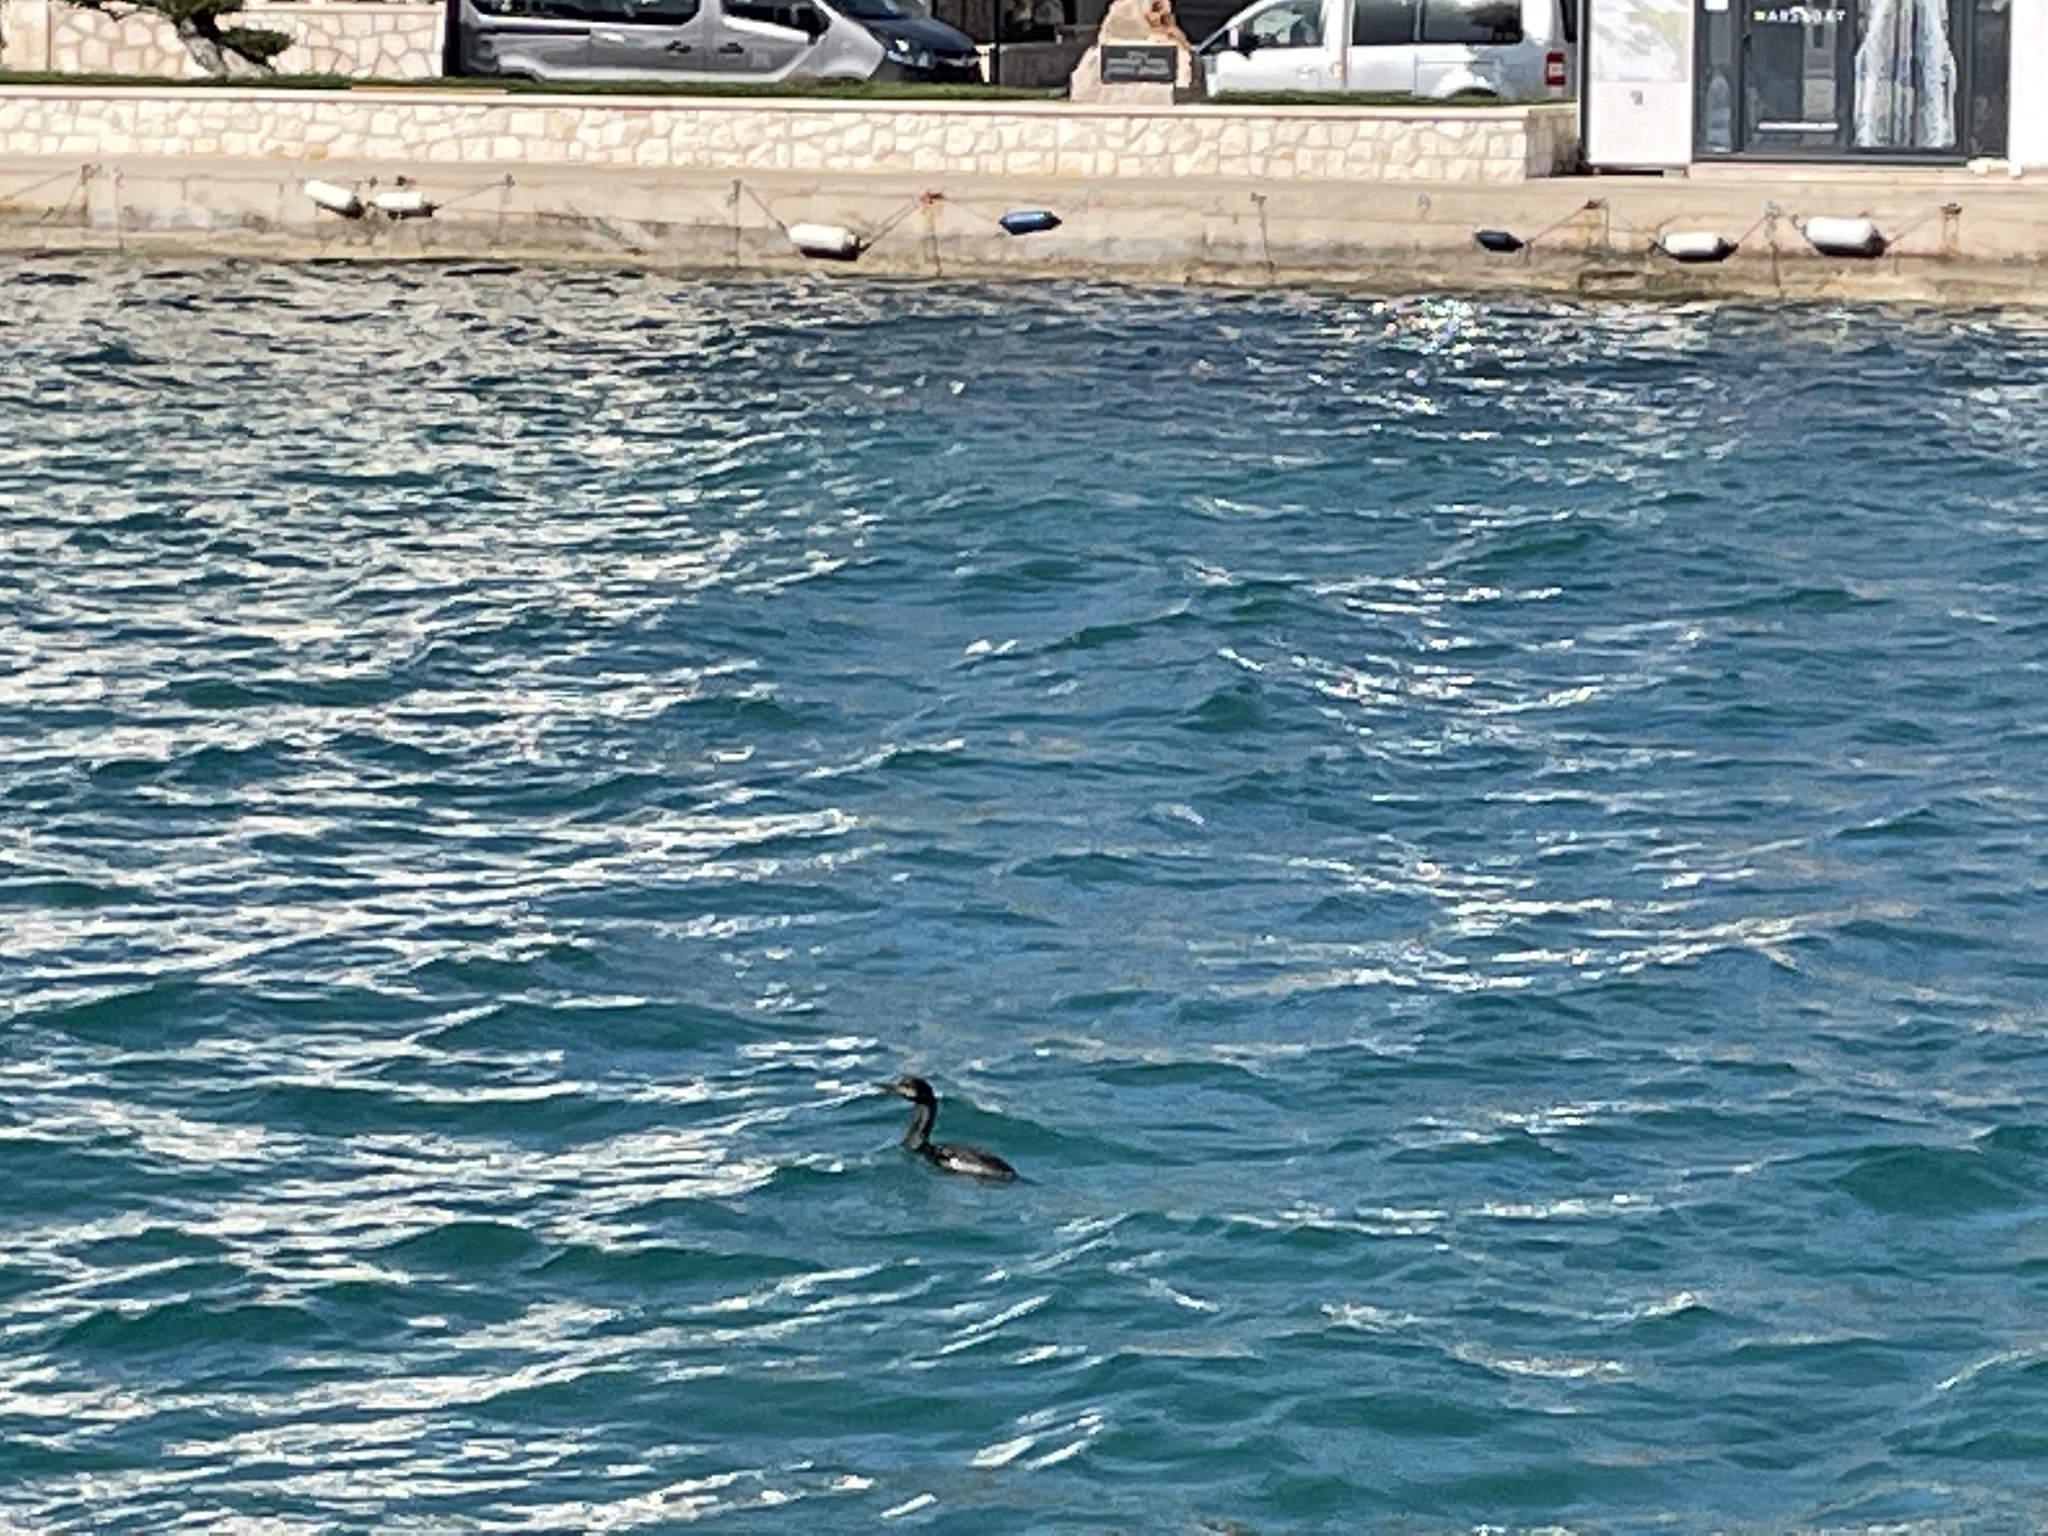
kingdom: Animalia
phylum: Chordata
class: Aves
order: Suliformes
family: Phalacrocoracidae
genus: Phalacrocorax
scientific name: Phalacrocorax aristotelis
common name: European shag
